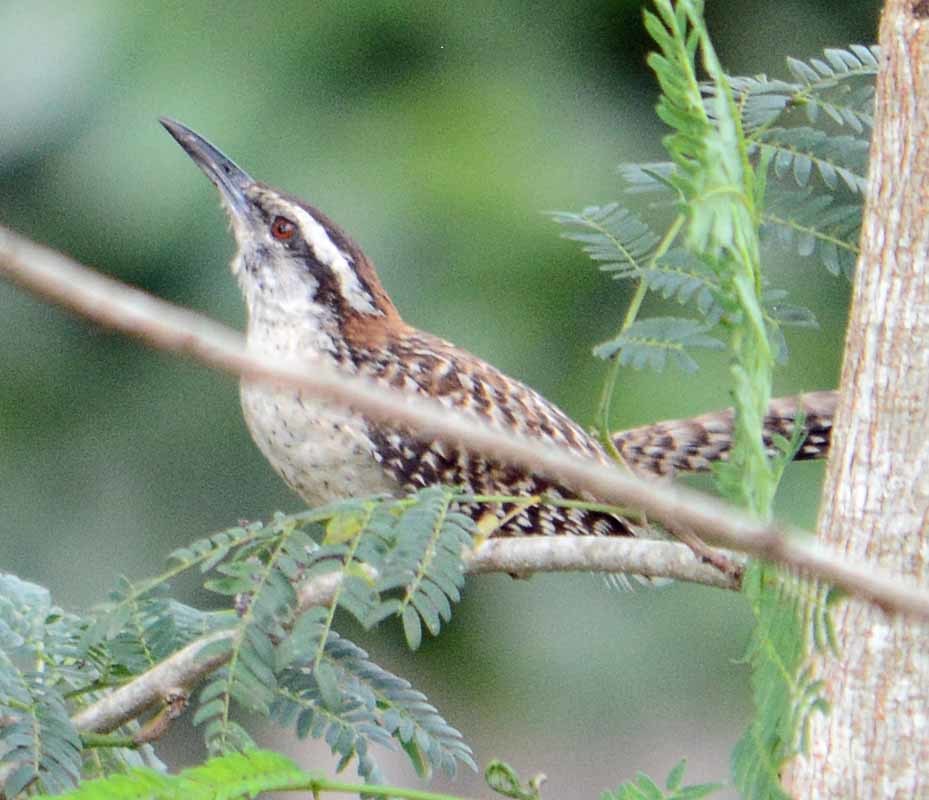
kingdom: Animalia
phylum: Chordata
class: Aves
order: Passeriformes
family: Troglodytidae
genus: Campylorhynchus
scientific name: Campylorhynchus rufinucha
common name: Rufous-naped wren
